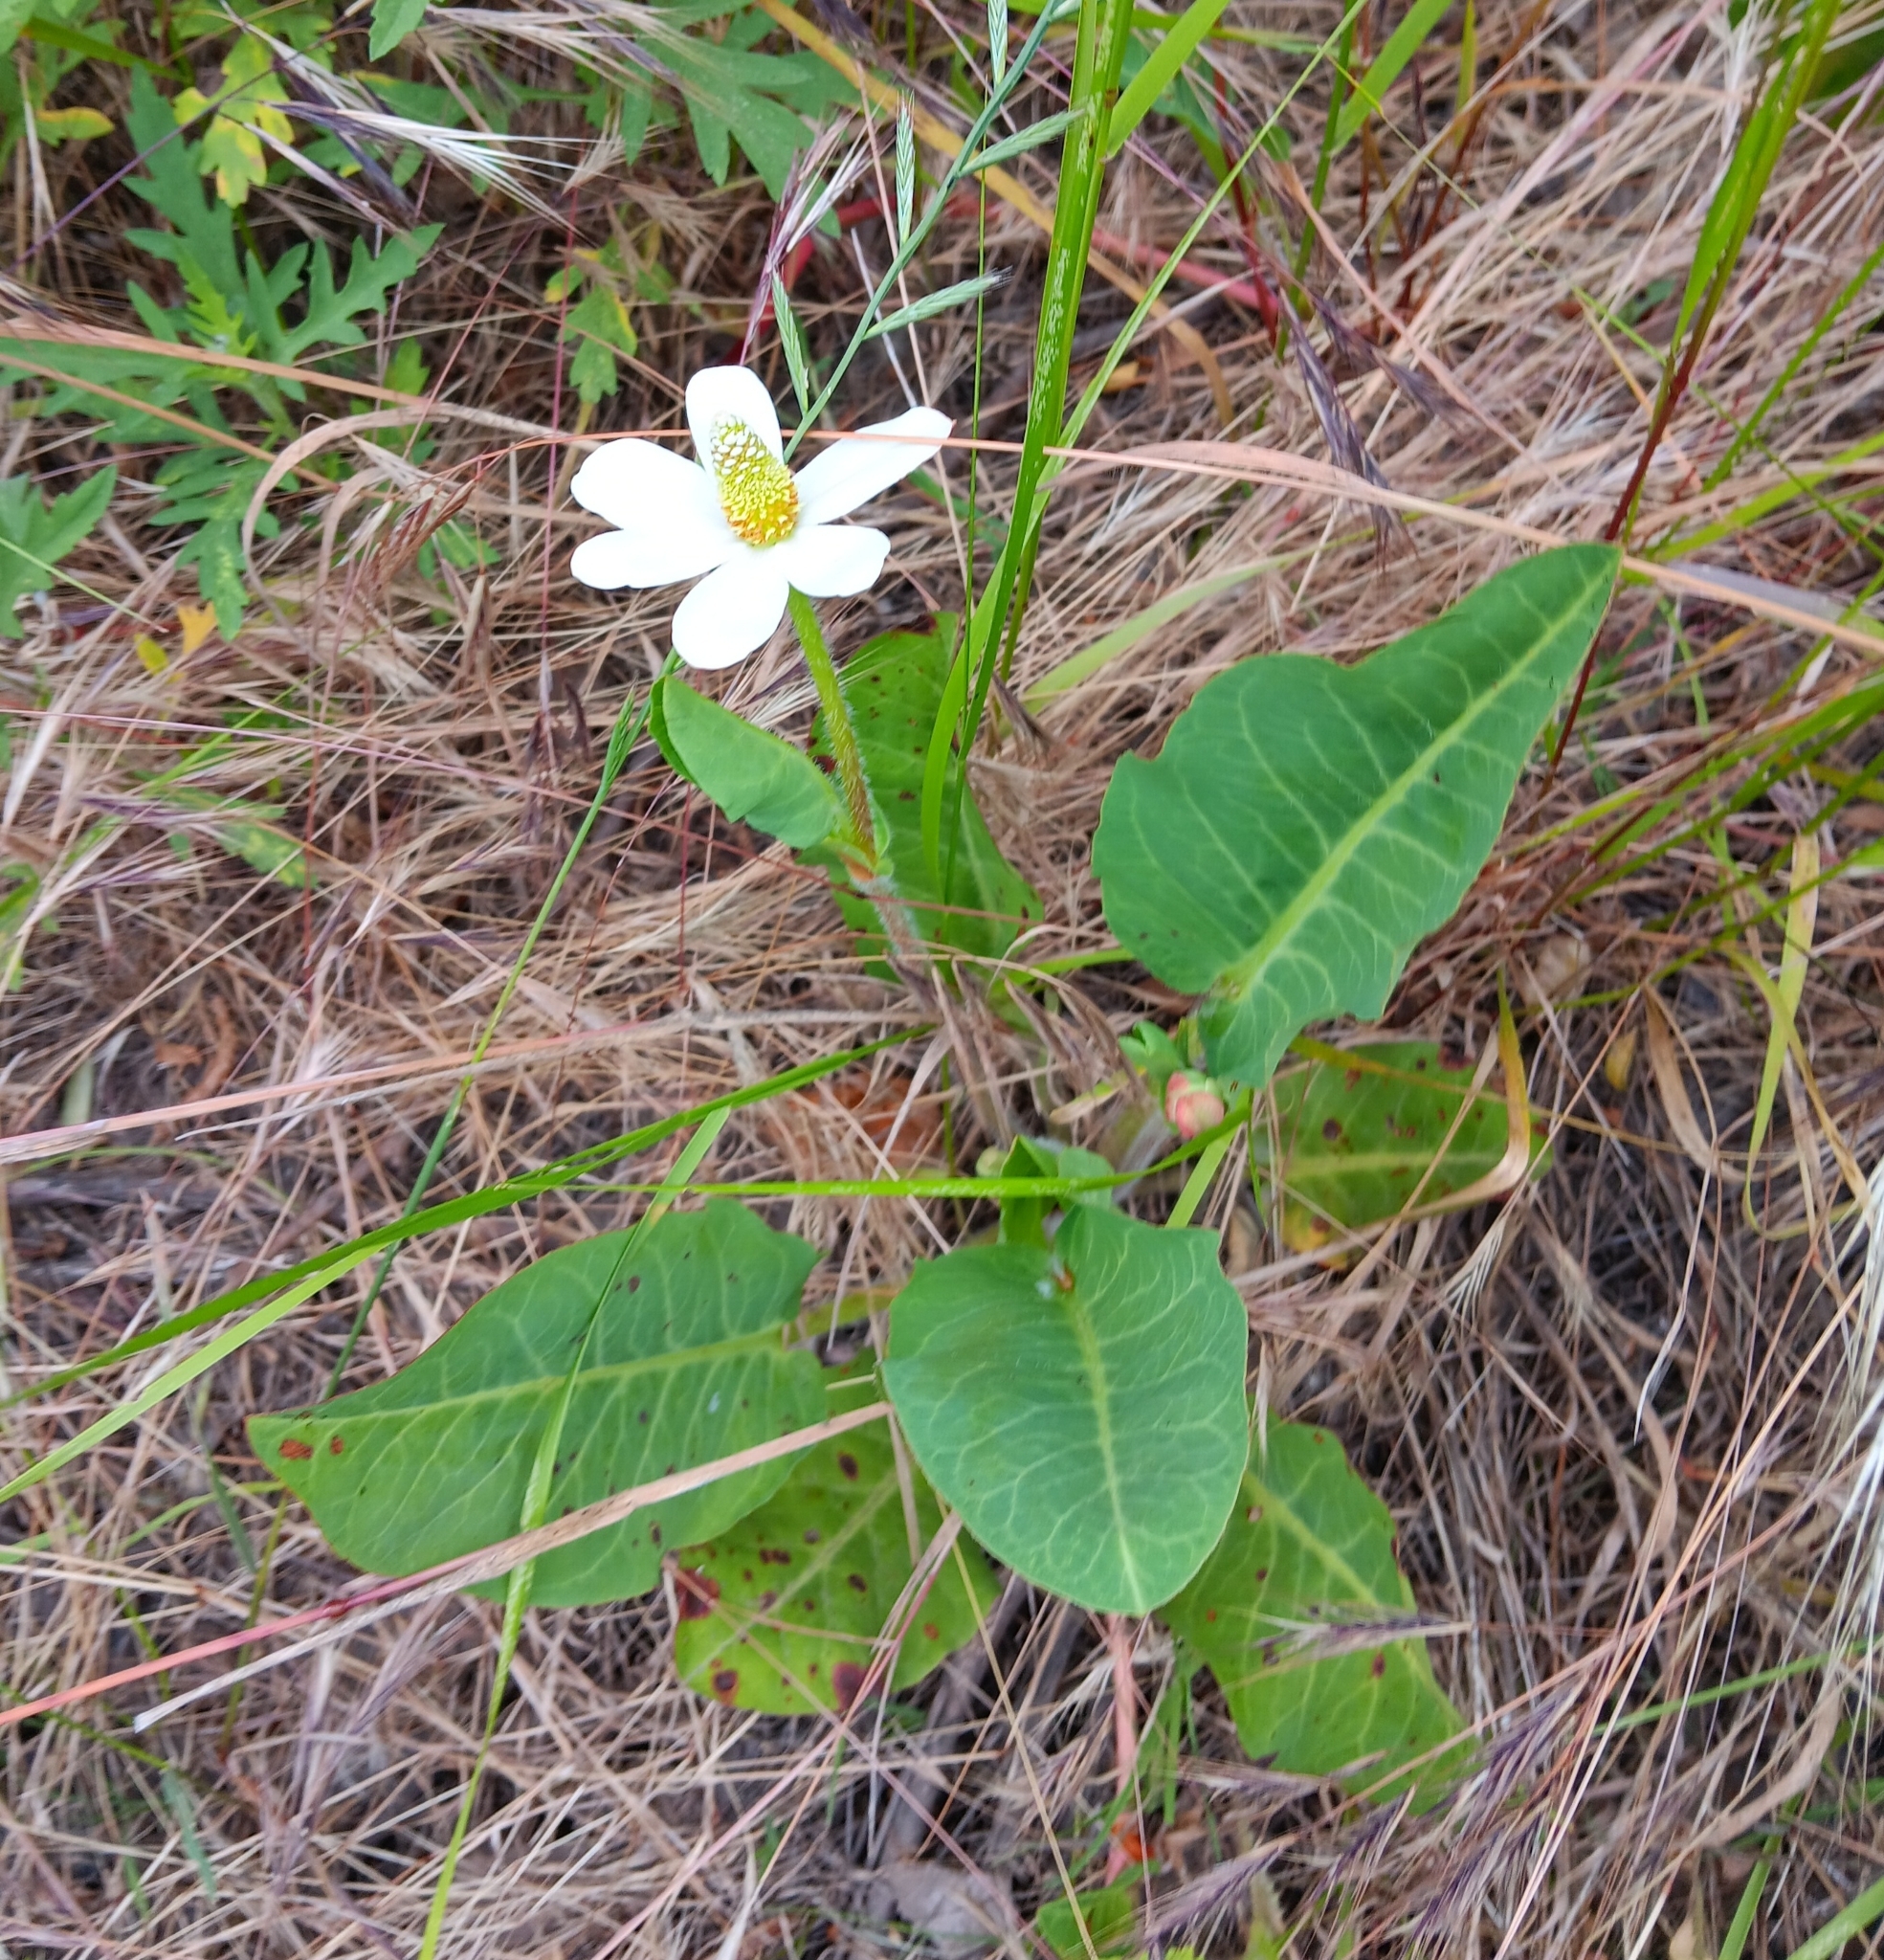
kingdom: Plantae
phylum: Tracheophyta
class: Magnoliopsida
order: Piperales
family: Saururaceae
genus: Anemopsis
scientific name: Anemopsis californica
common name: Apache-beads
